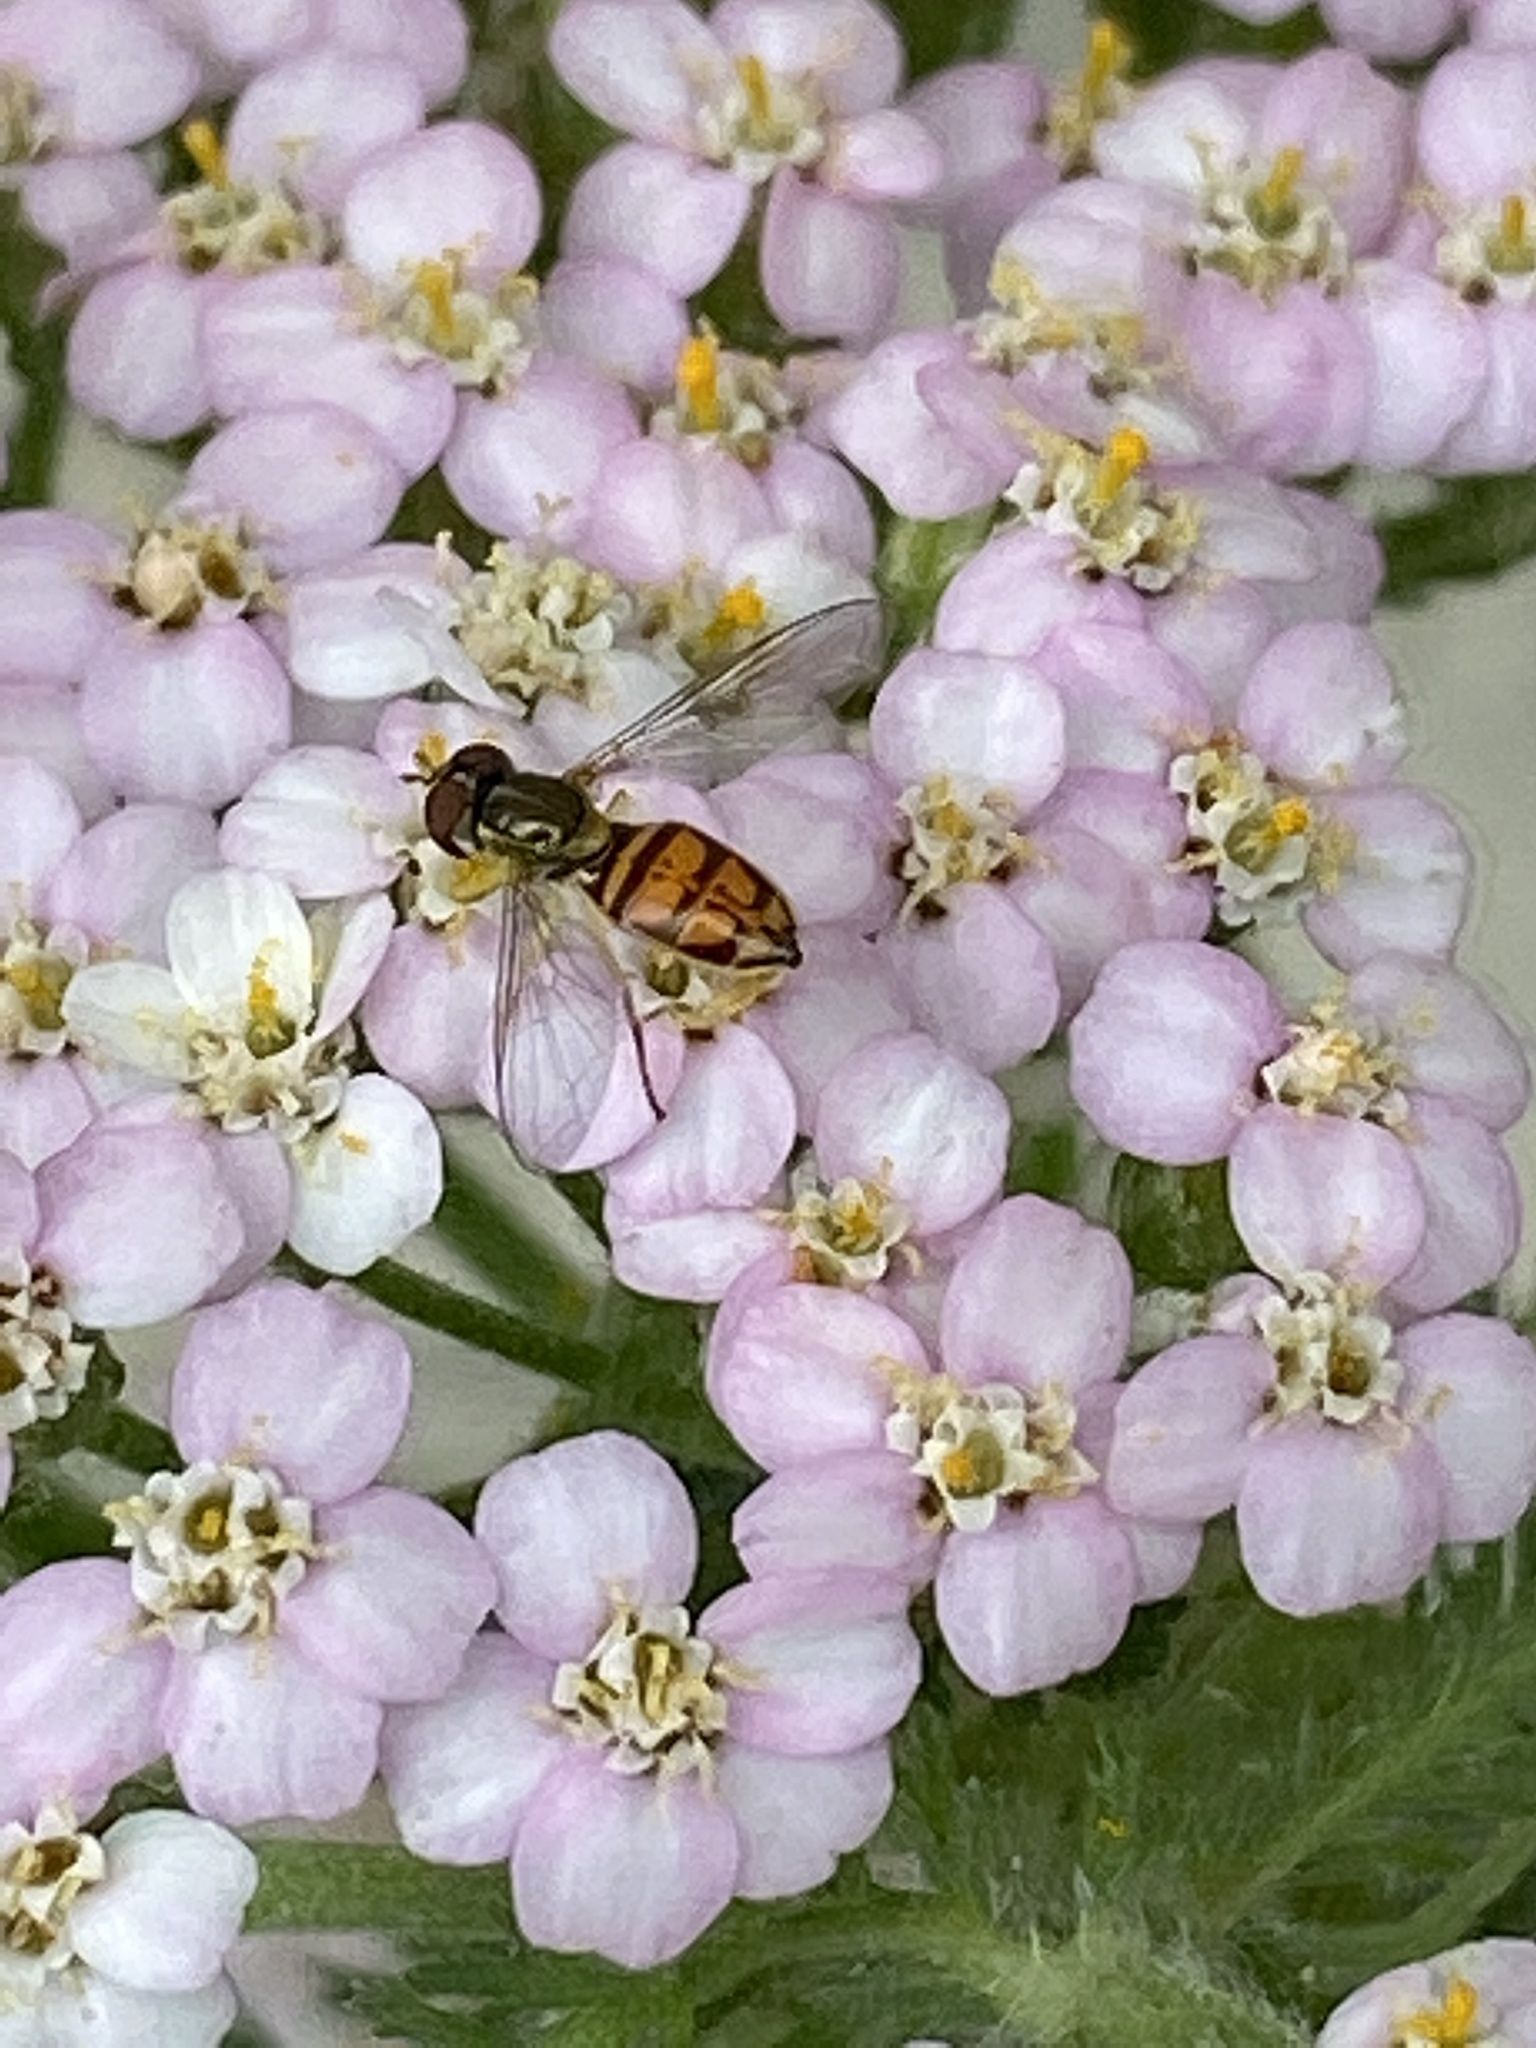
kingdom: Animalia
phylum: Arthropoda
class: Insecta
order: Diptera
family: Syrphidae
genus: Toxomerus
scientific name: Toxomerus marginatus
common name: Syrphid fly
